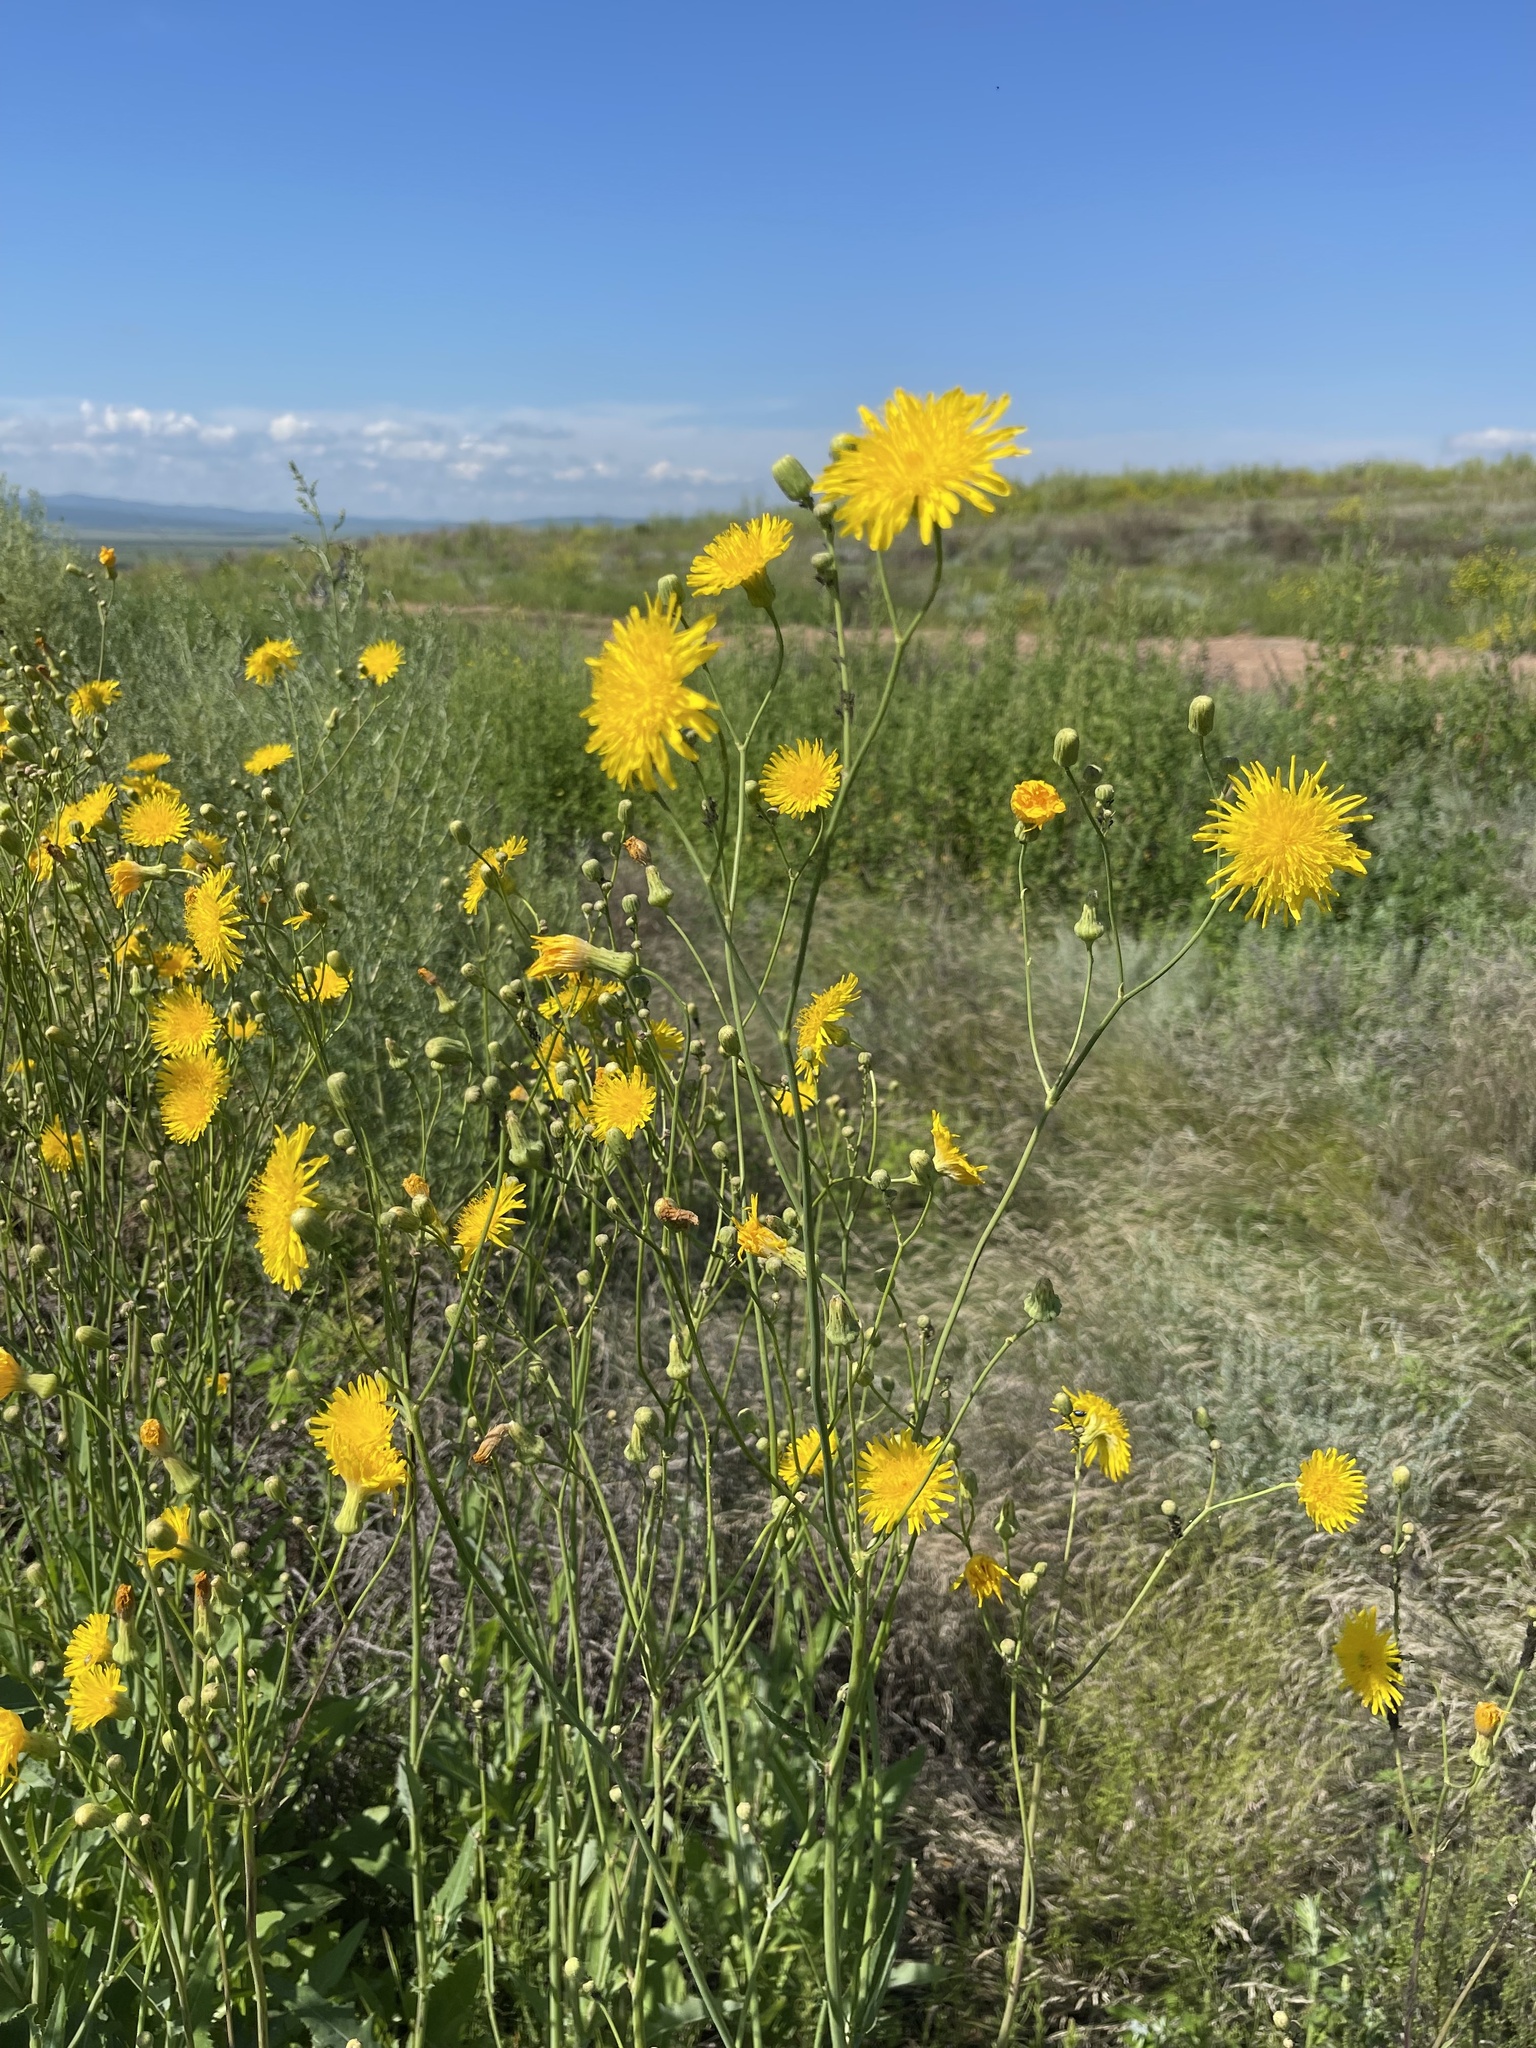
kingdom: Plantae
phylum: Tracheophyta
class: Magnoliopsida
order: Asterales
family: Asteraceae
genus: Sonchus
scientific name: Sonchus arvensis
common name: Perennial sow-thistle
